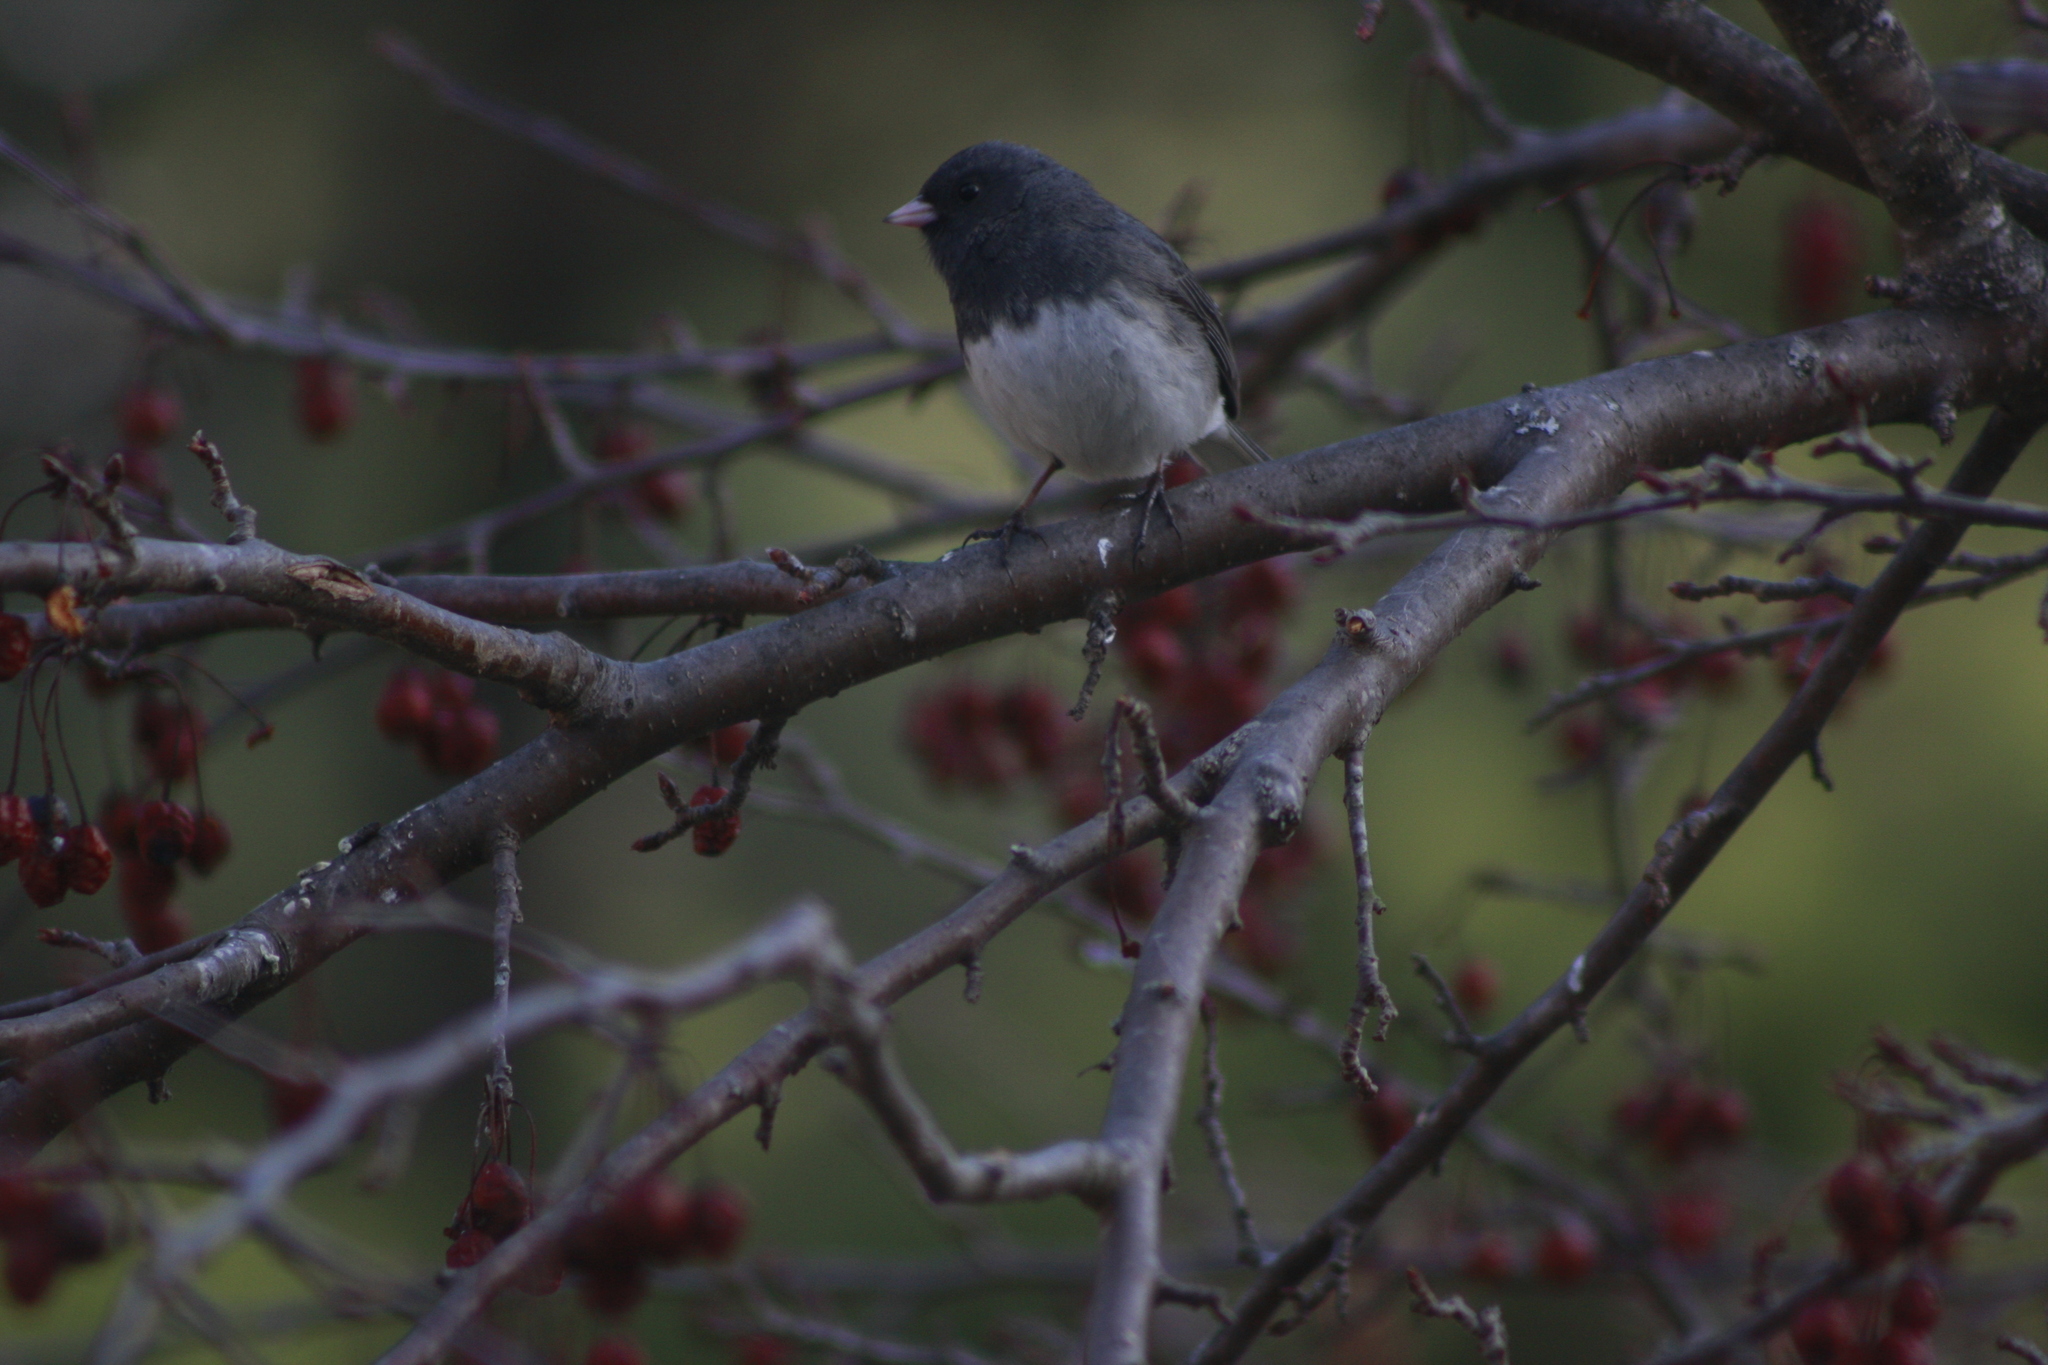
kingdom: Animalia
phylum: Chordata
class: Aves
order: Passeriformes
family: Passerellidae
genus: Junco
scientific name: Junco hyemalis
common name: Dark-eyed junco
